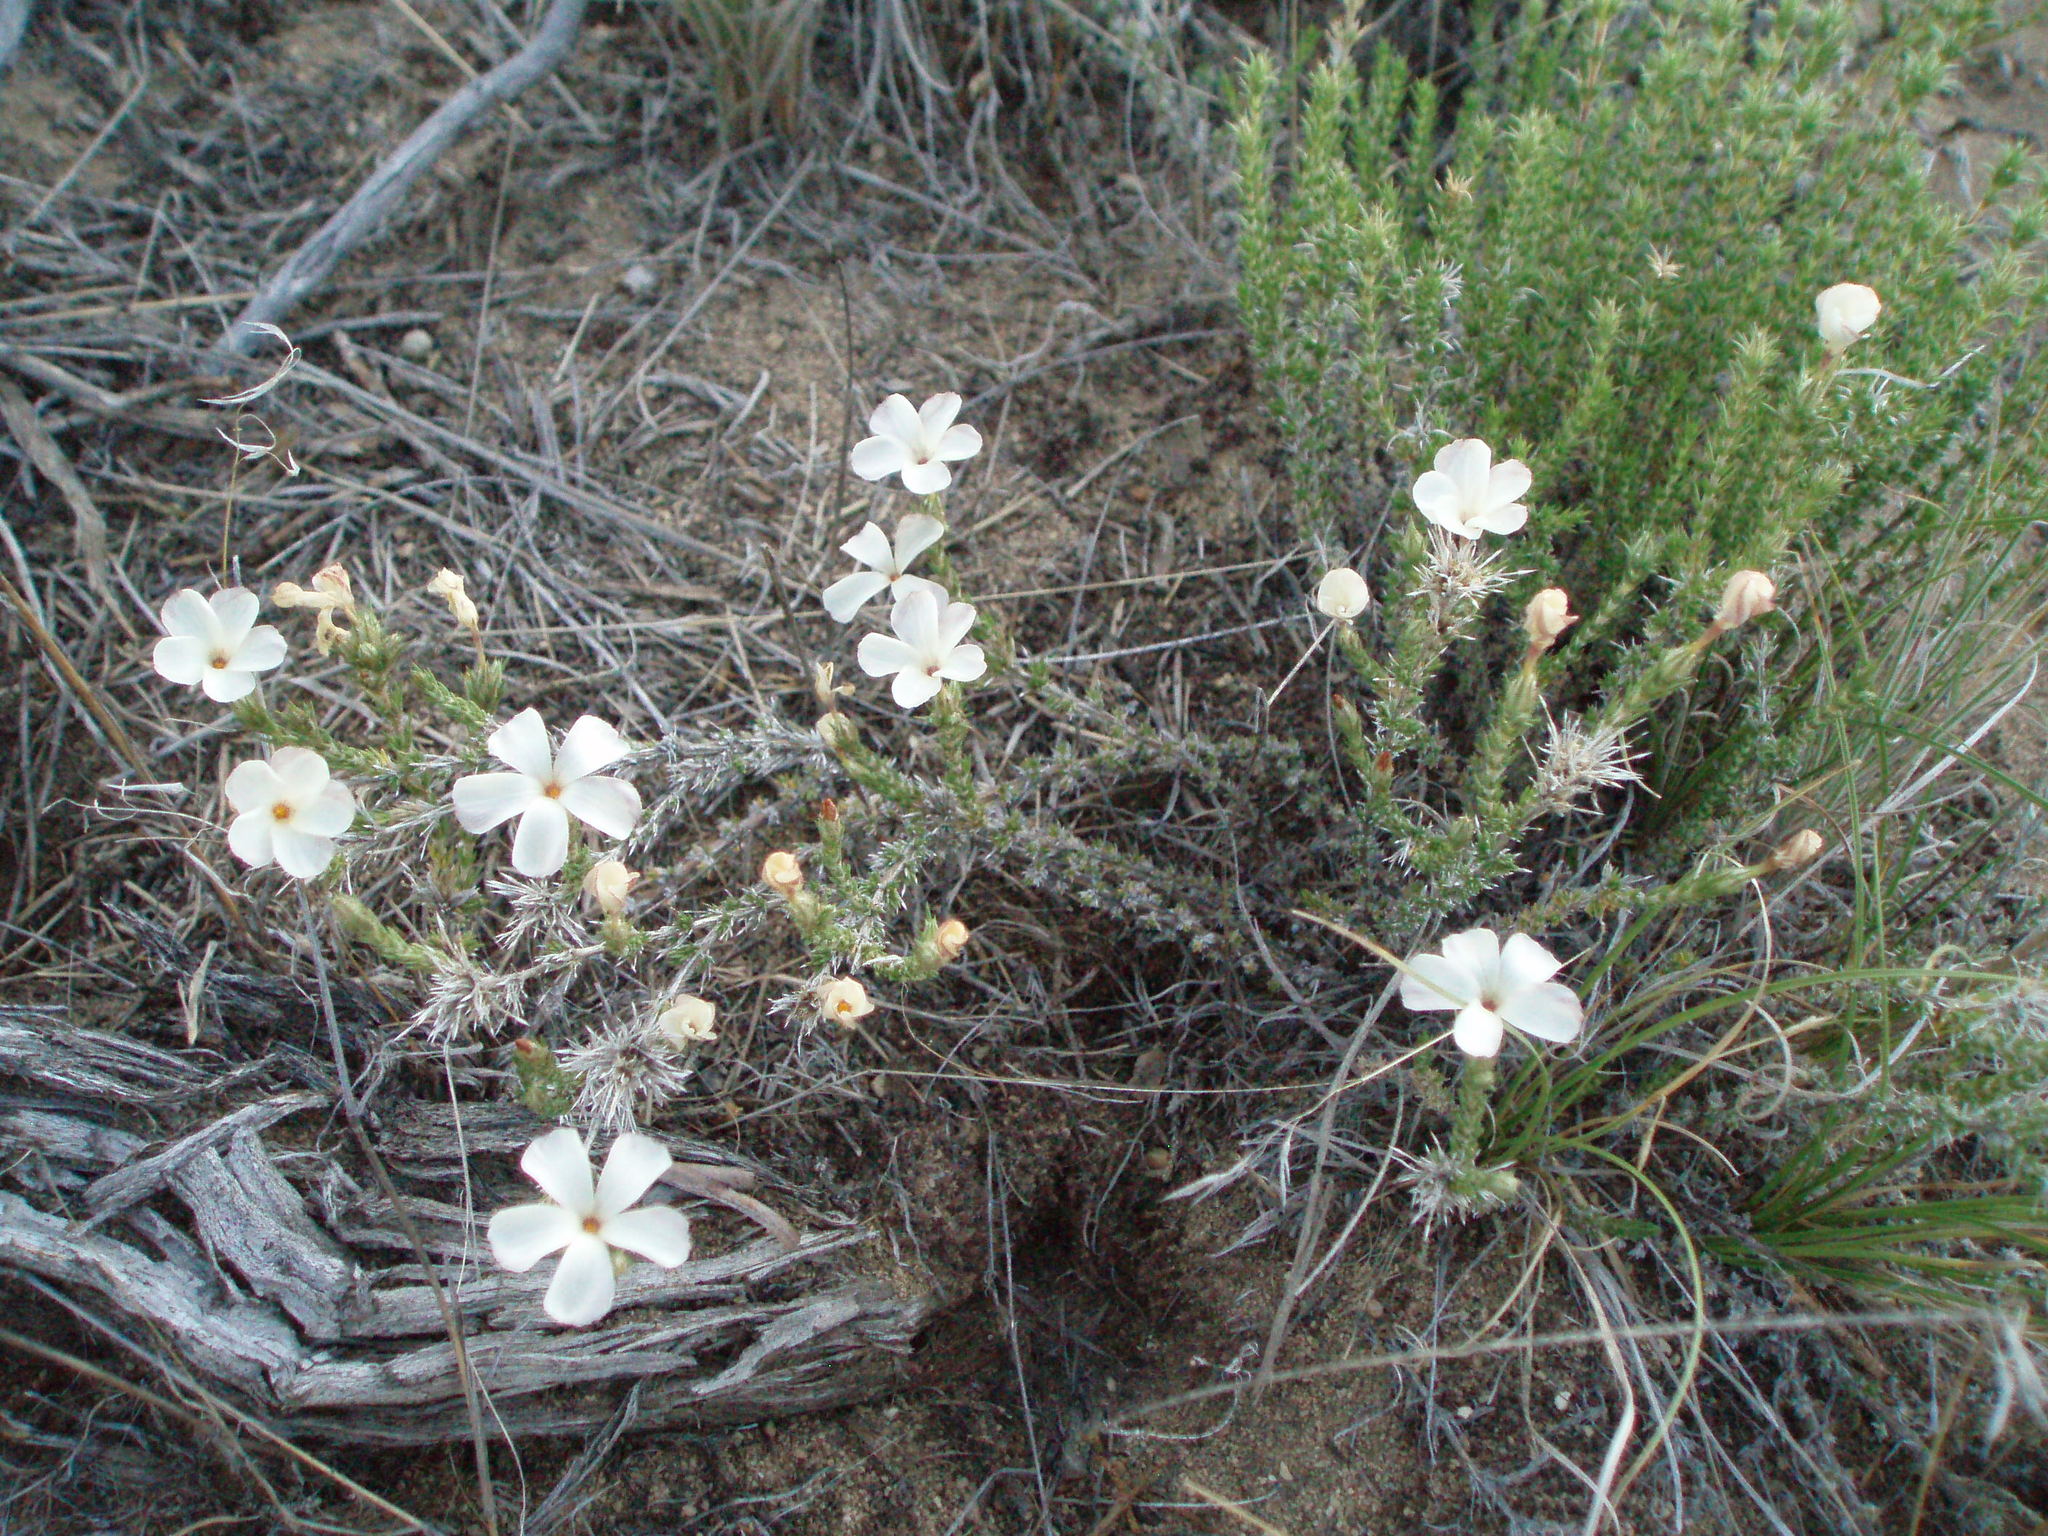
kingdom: Plantae
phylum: Tracheophyta
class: Magnoliopsida
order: Ericales
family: Polemoniaceae
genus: Linanthus
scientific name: Linanthus pungens
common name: Granite prickly phlox
